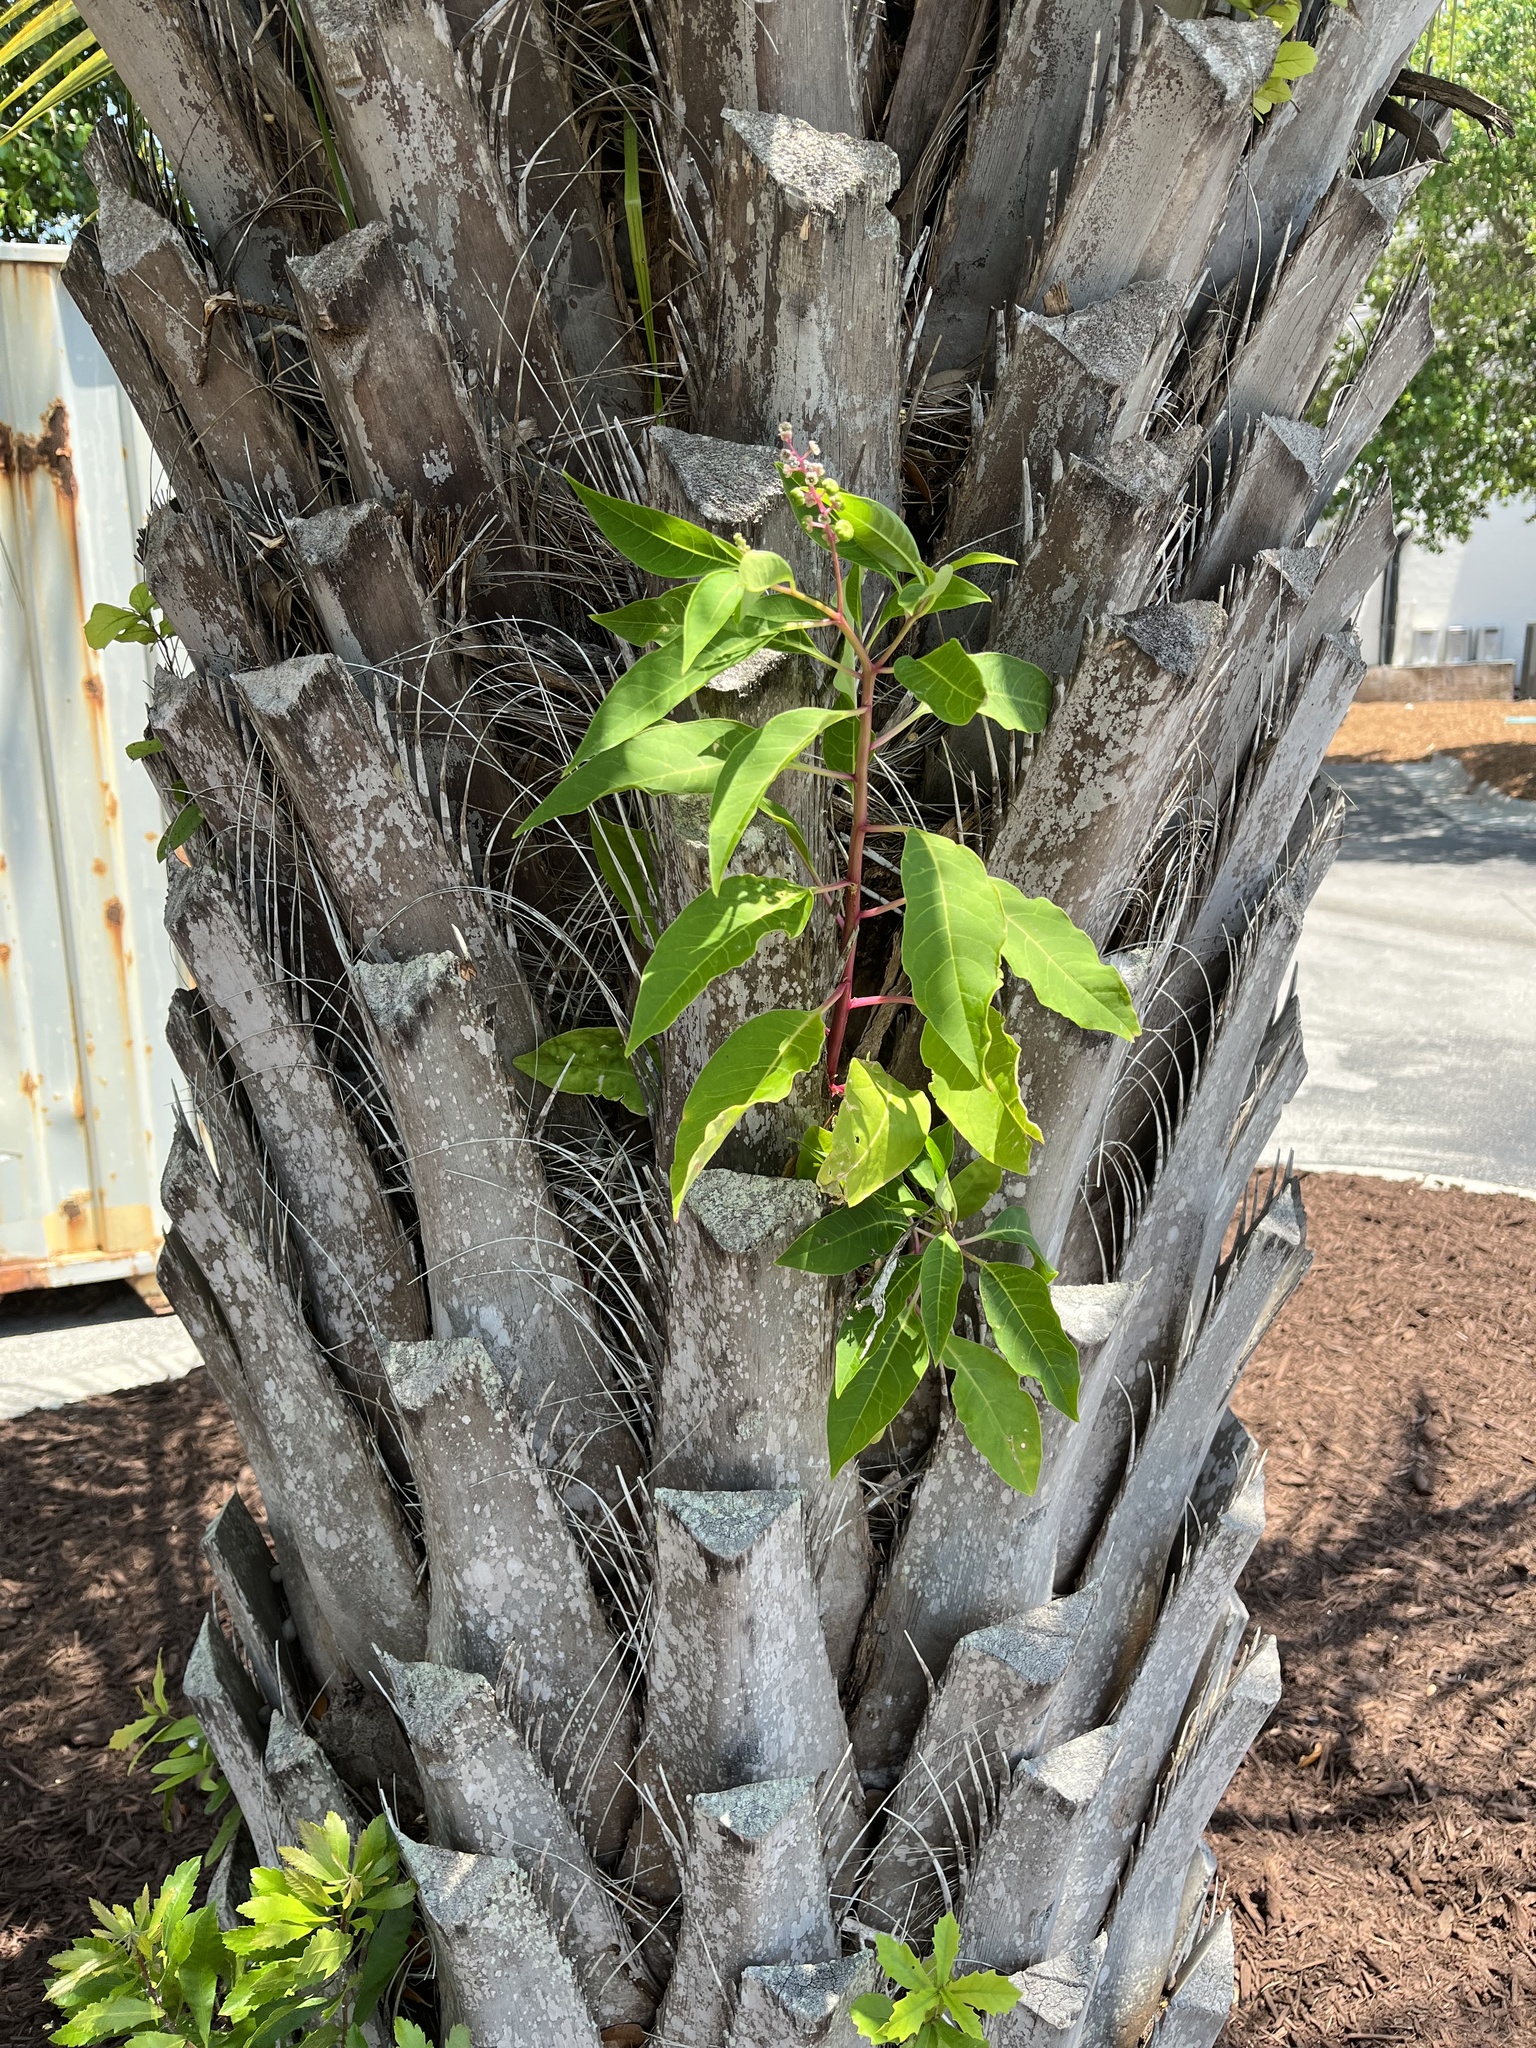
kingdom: Plantae
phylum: Tracheophyta
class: Magnoliopsida
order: Caryophyllales
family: Phytolaccaceae
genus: Phytolacca
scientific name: Phytolacca americana
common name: American pokeweed
